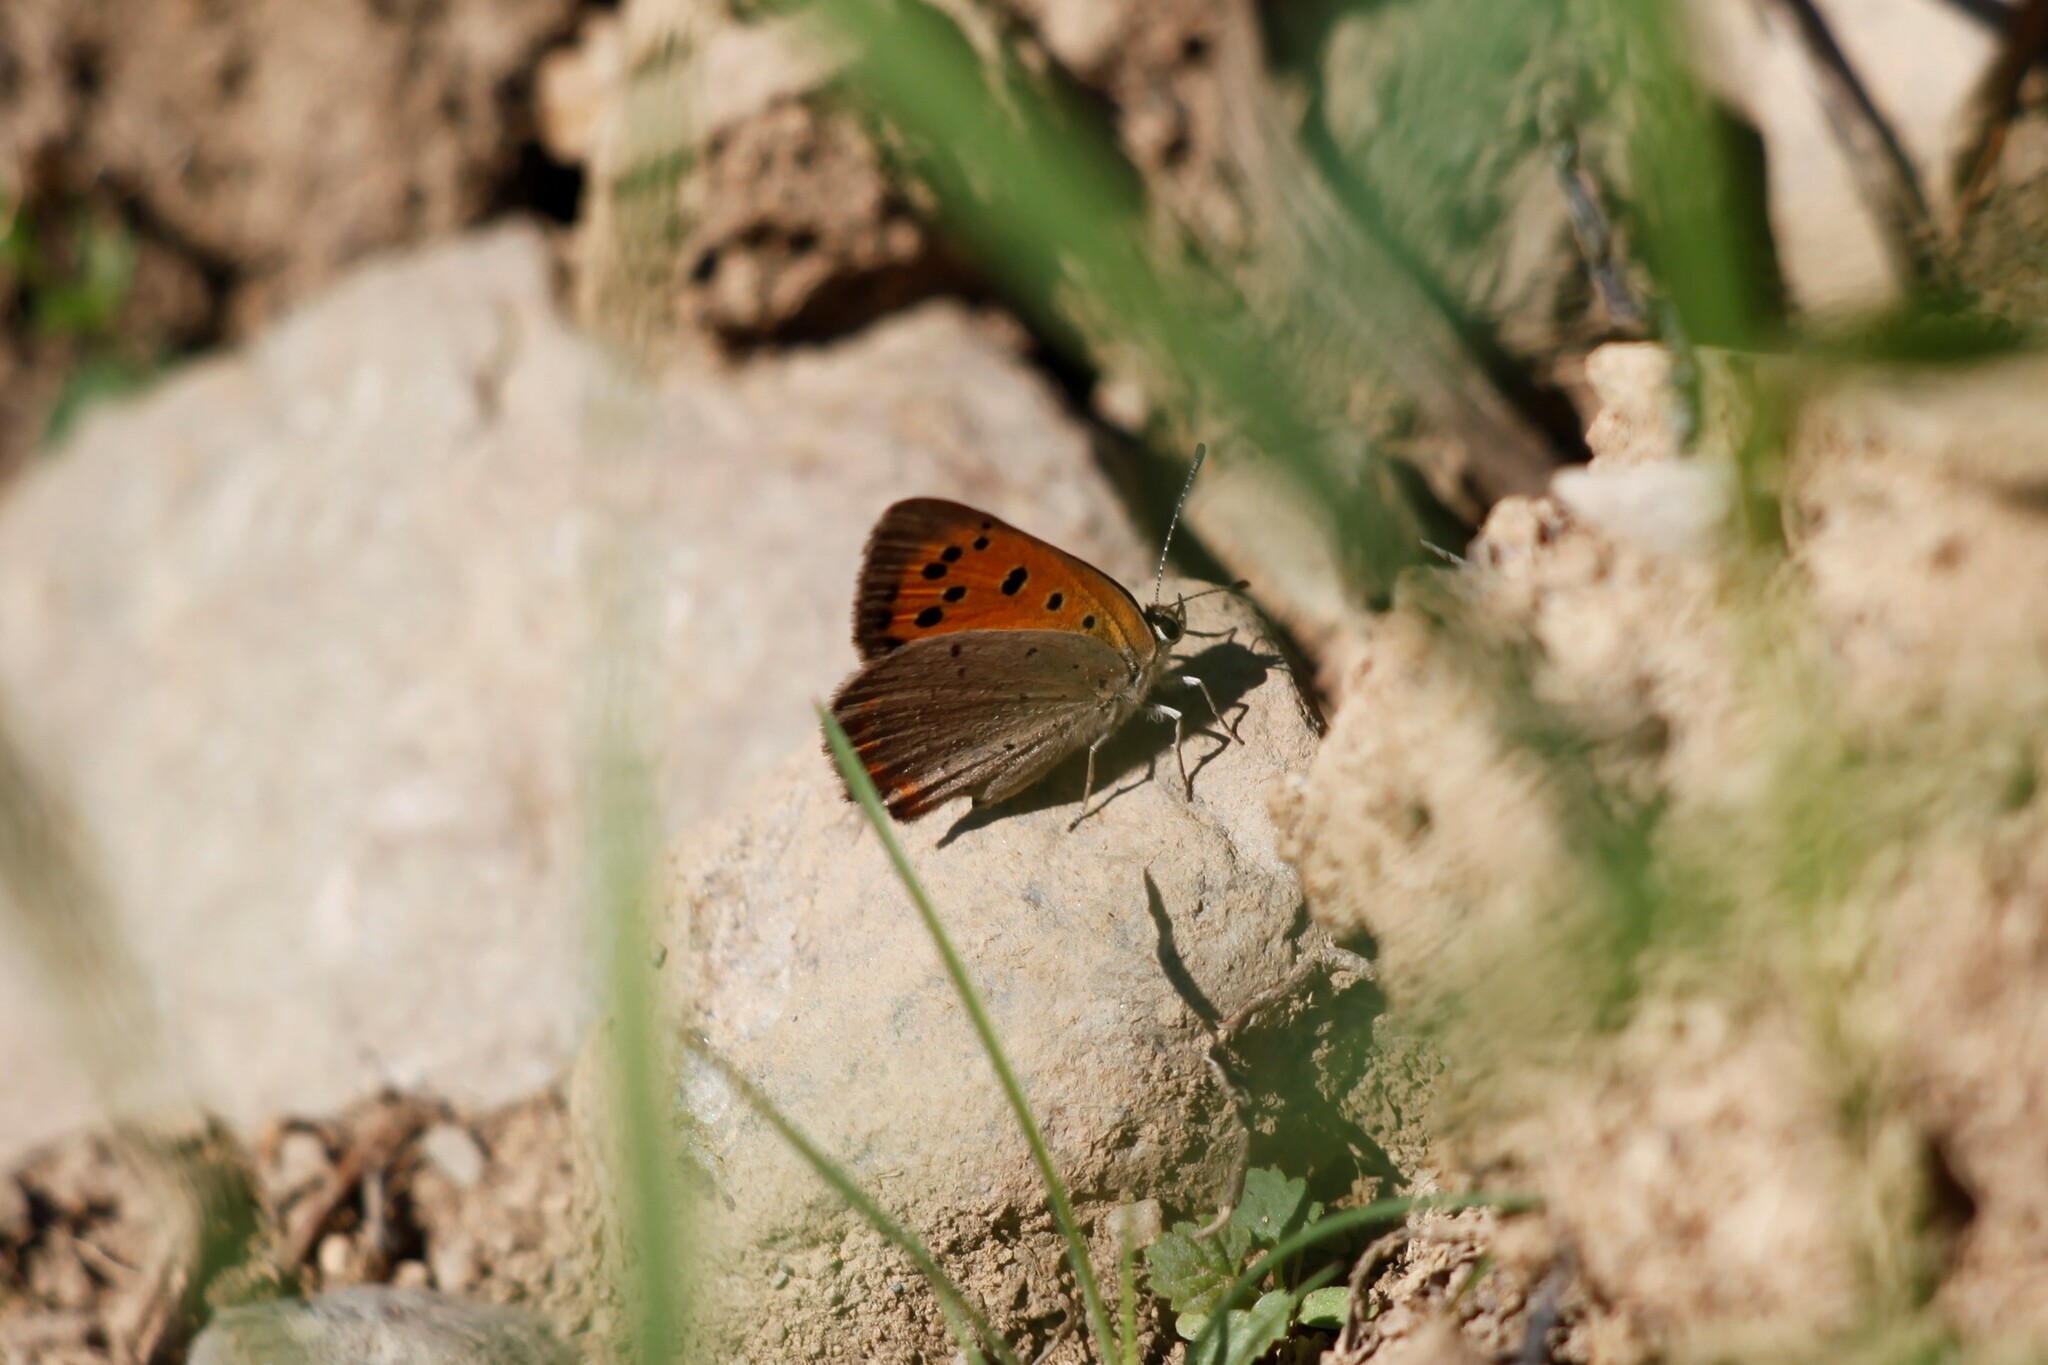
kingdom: Animalia
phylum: Arthropoda
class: Insecta
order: Lepidoptera
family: Lycaenidae
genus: Lycaena
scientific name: Lycaena phlaeas
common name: Small copper
